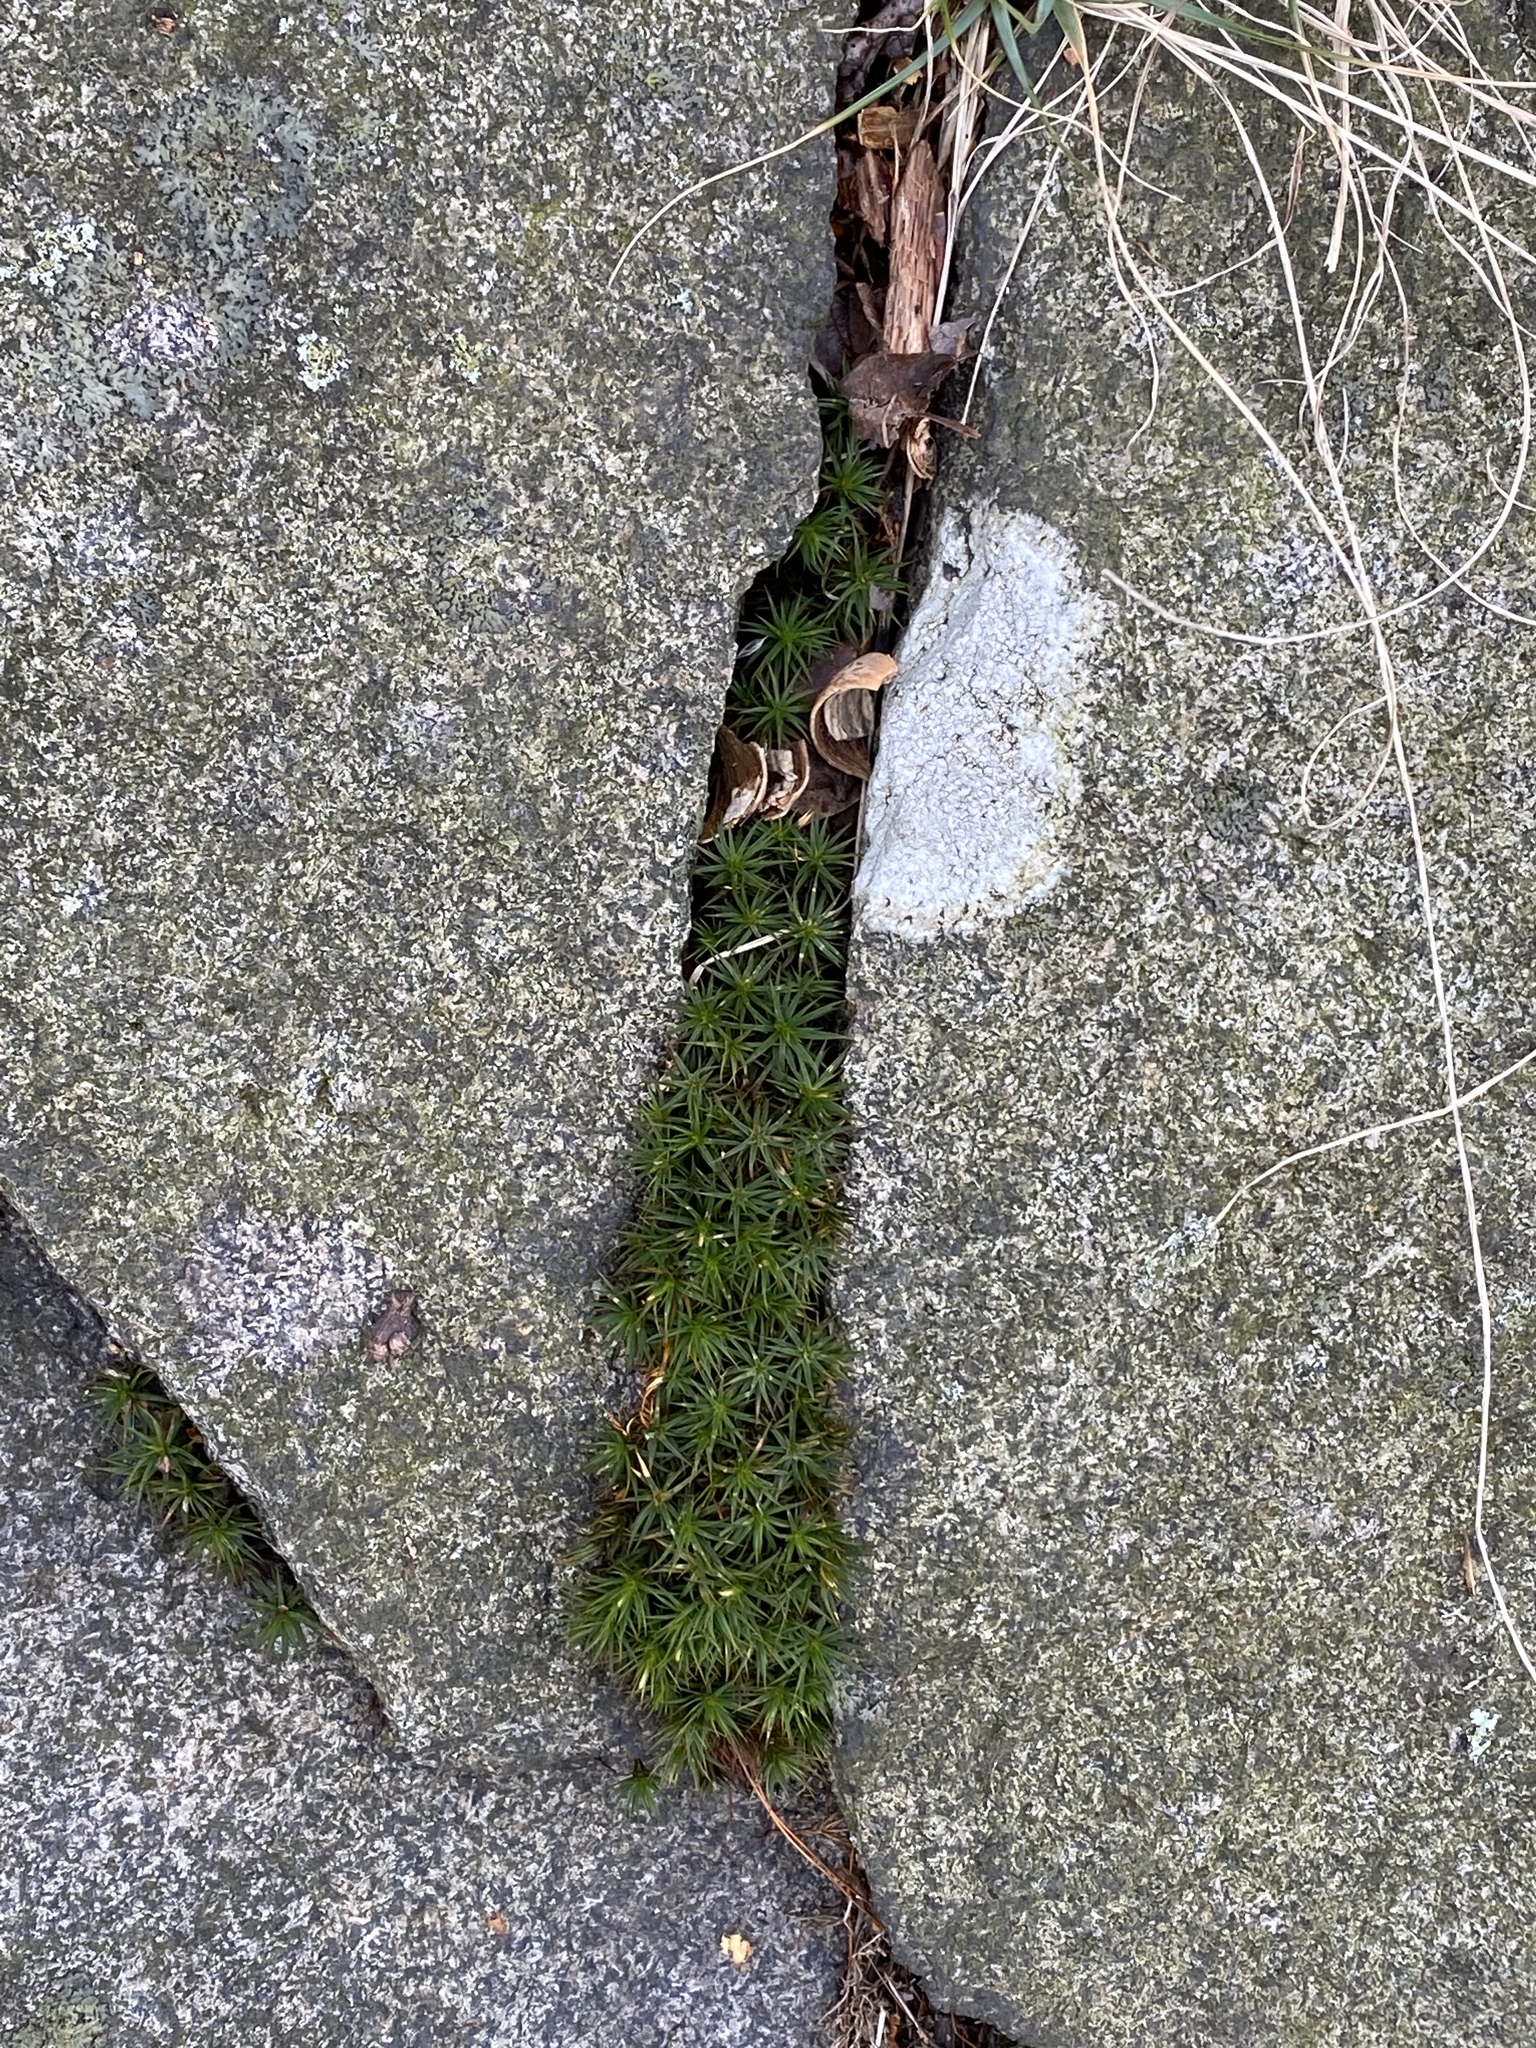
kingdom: Plantae
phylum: Bryophyta
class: Polytrichopsida
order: Polytrichales
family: Polytrichaceae
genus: Polytrichum
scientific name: Polytrichum juniperinum
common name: Juniper haircap moss
